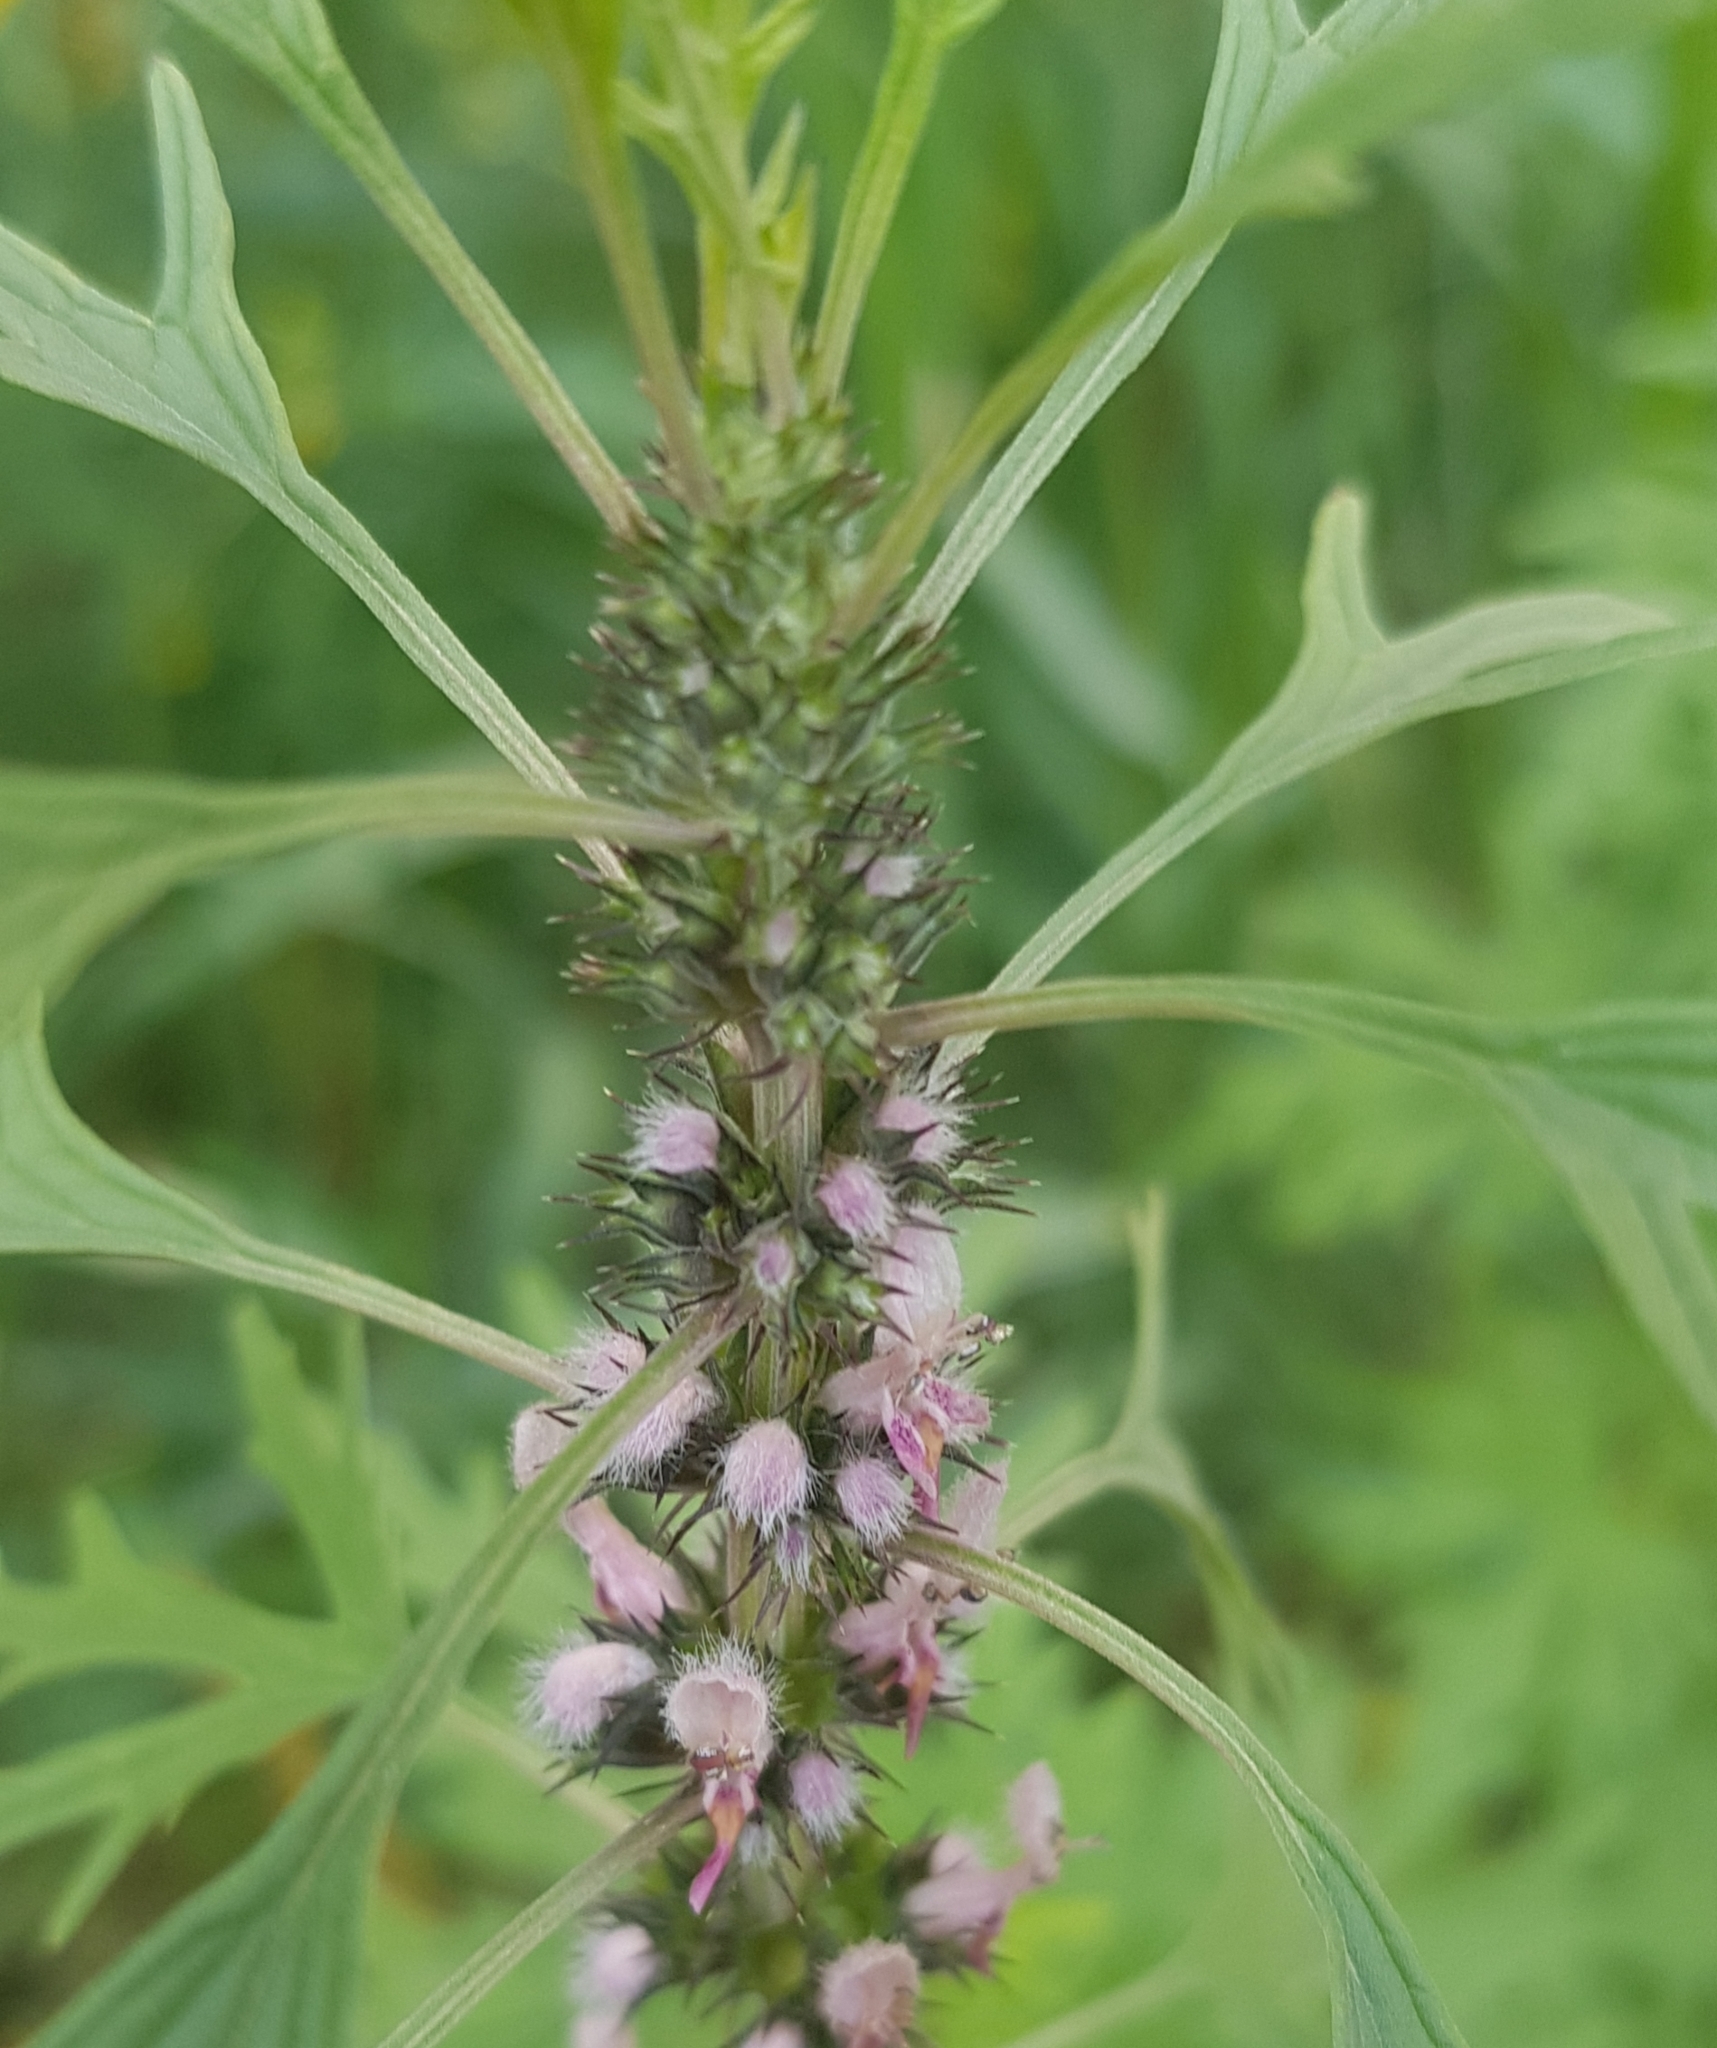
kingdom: Plantae
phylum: Tracheophyta
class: Magnoliopsida
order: Lamiales
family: Lamiaceae
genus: Leonurus
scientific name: Leonurus deminutus
